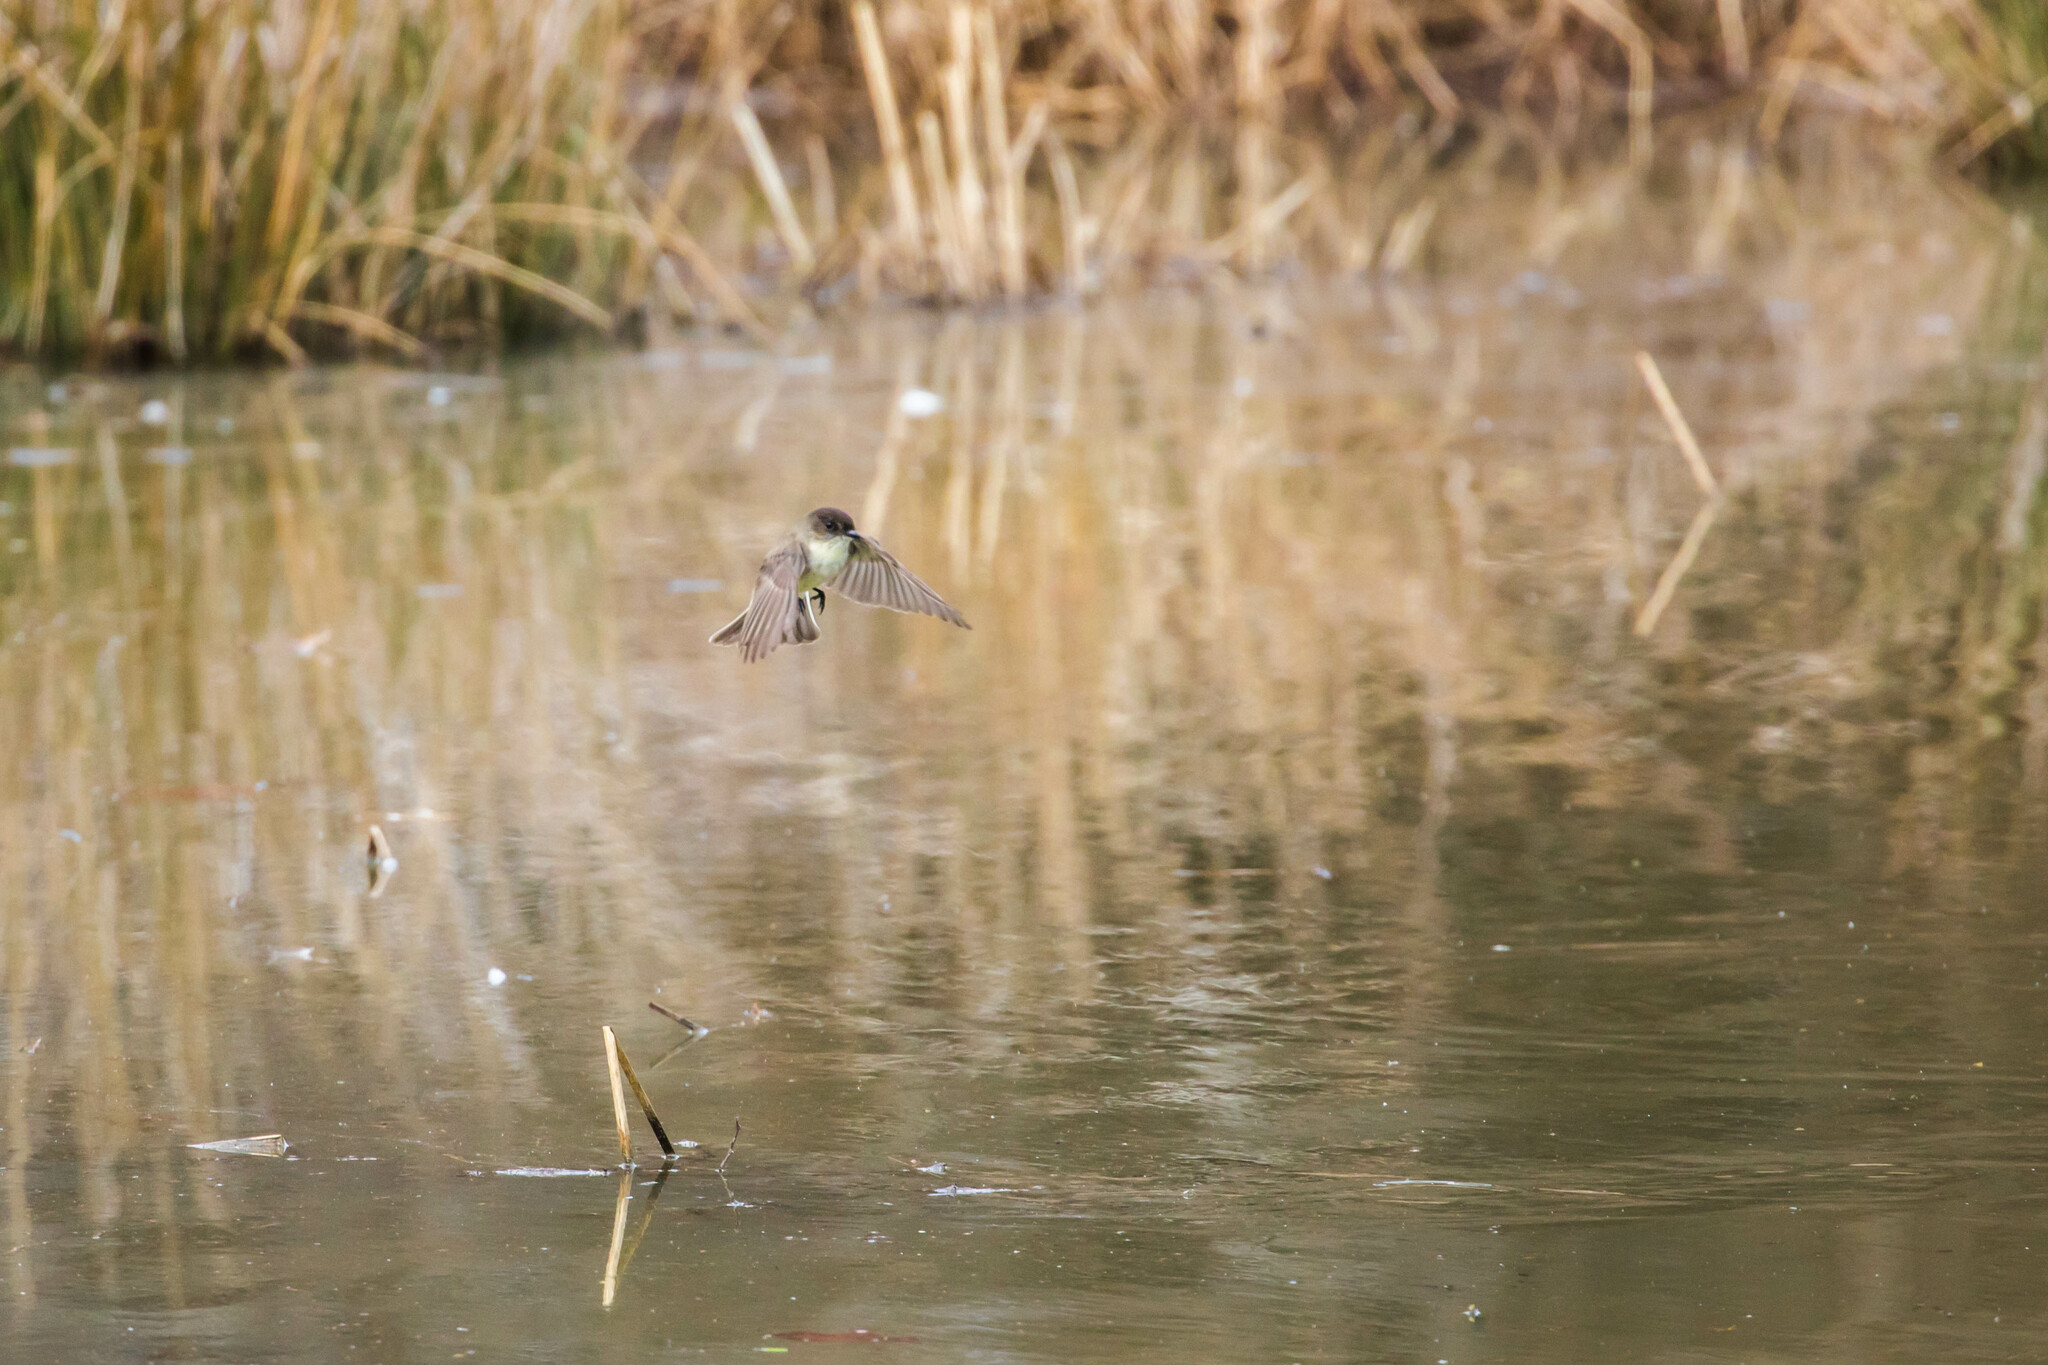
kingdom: Animalia
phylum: Chordata
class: Aves
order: Passeriformes
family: Tyrannidae
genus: Sayornis
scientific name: Sayornis phoebe
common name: Eastern phoebe
